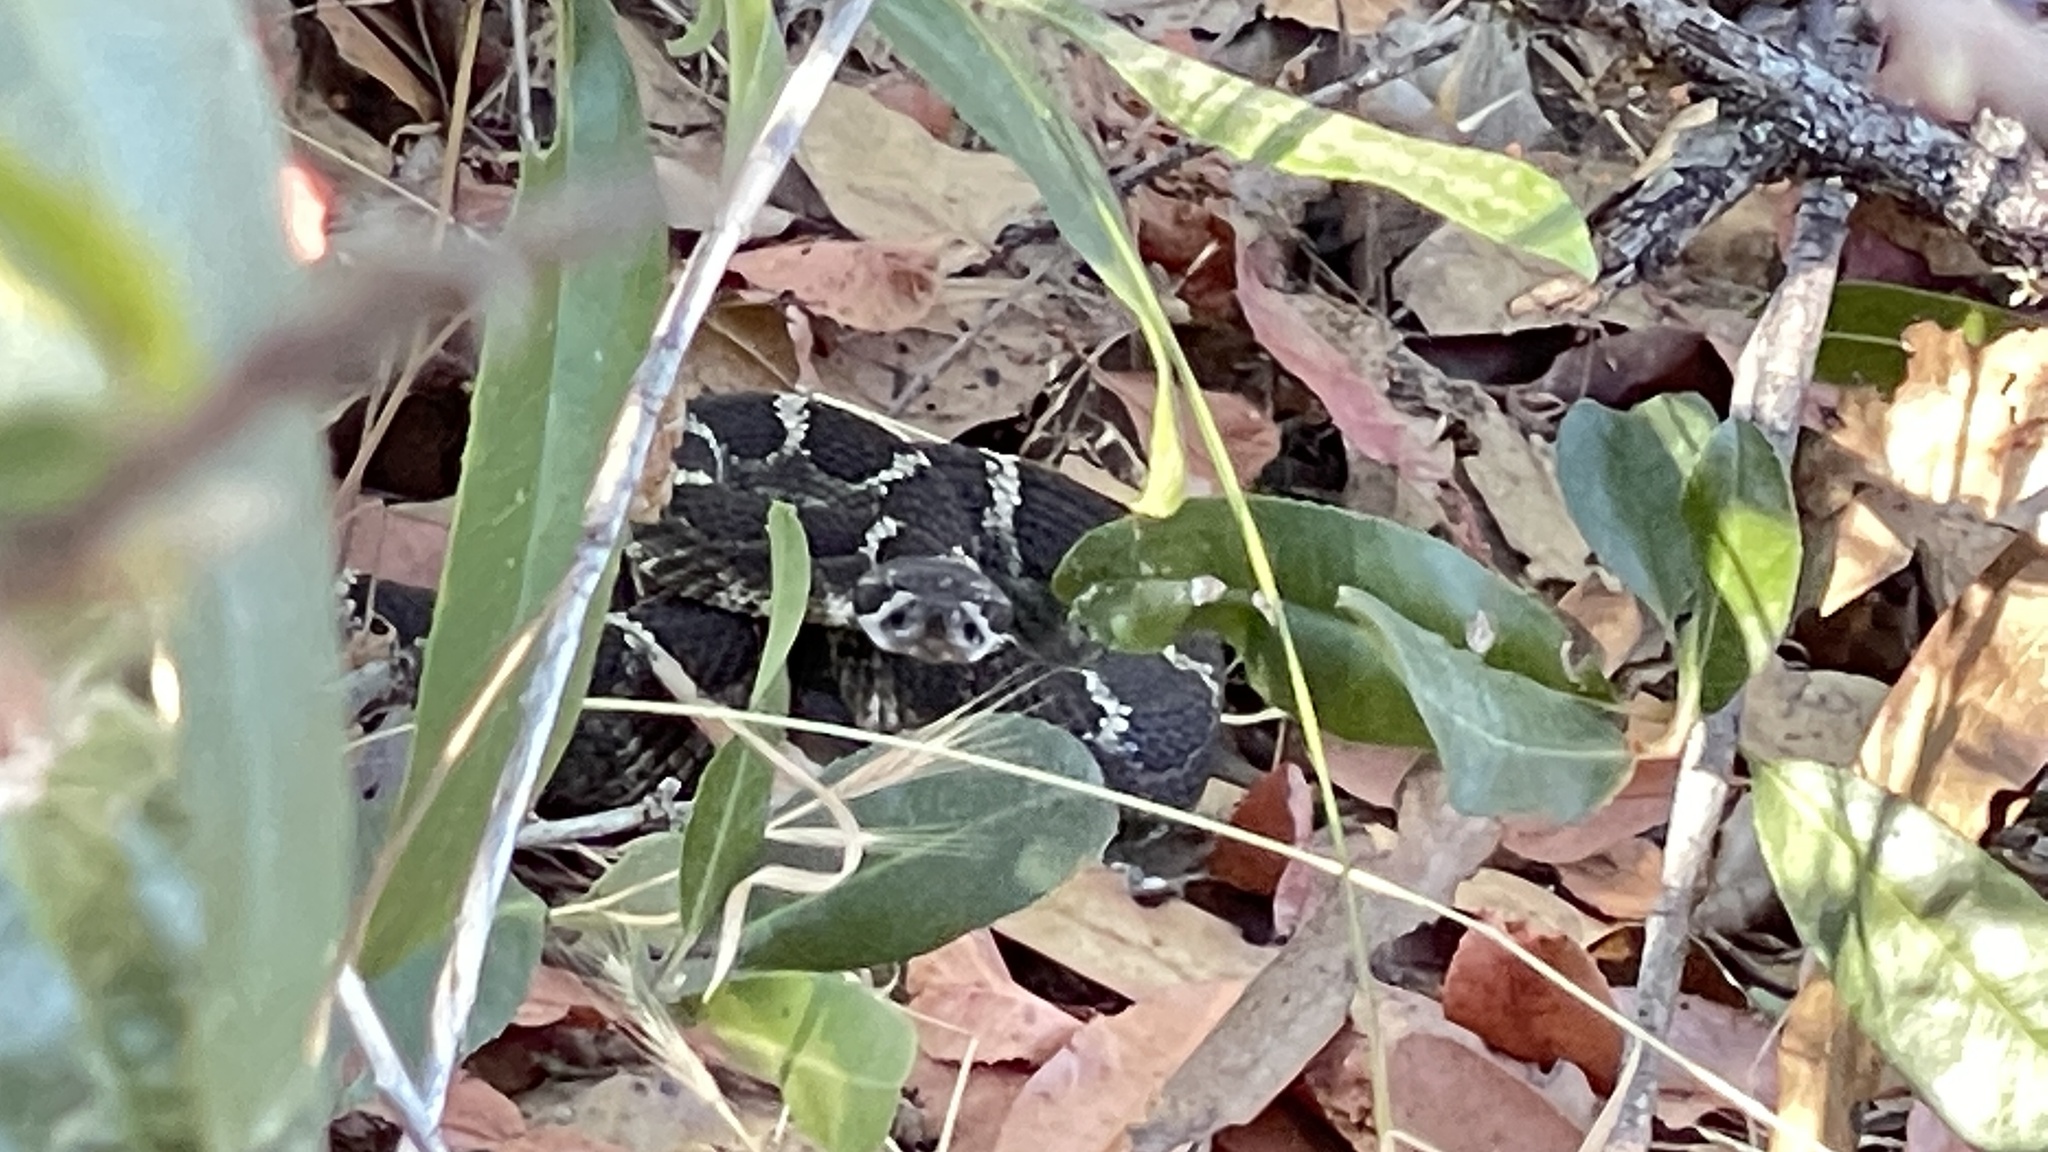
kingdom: Animalia
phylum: Chordata
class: Squamata
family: Viperidae
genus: Crotalus
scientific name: Crotalus oreganus
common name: Abyssus
